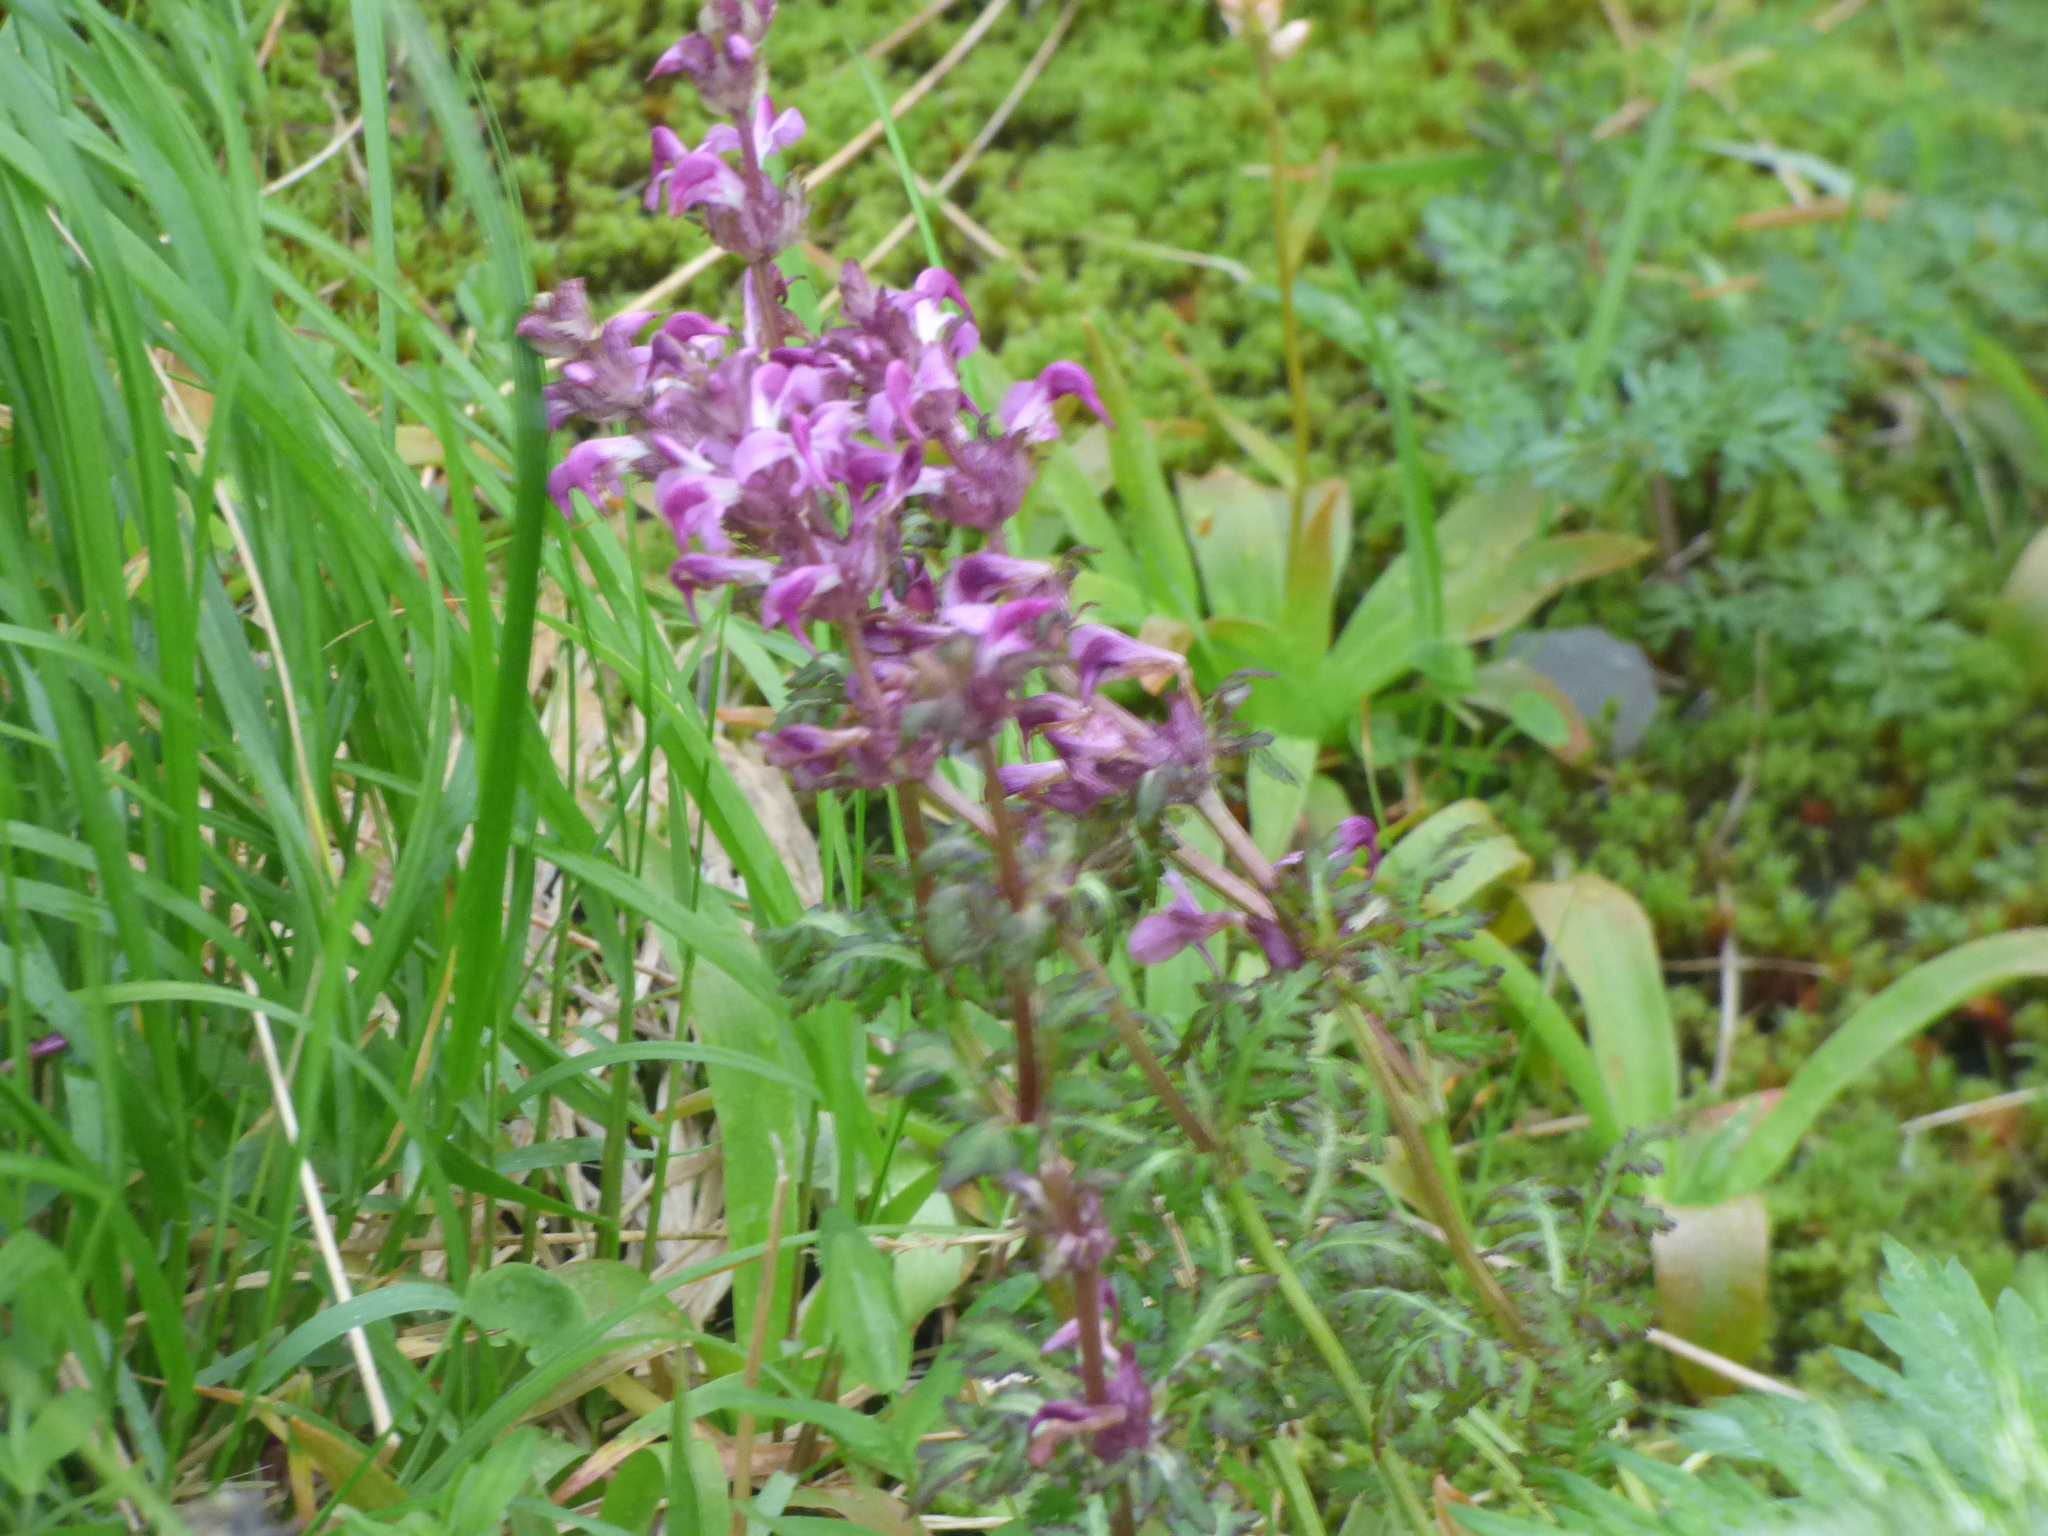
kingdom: Plantae
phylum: Tracheophyta
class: Magnoliopsida
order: Lamiales
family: Orobanchaceae
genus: Pedicularis
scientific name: Pedicularis chamissonis
